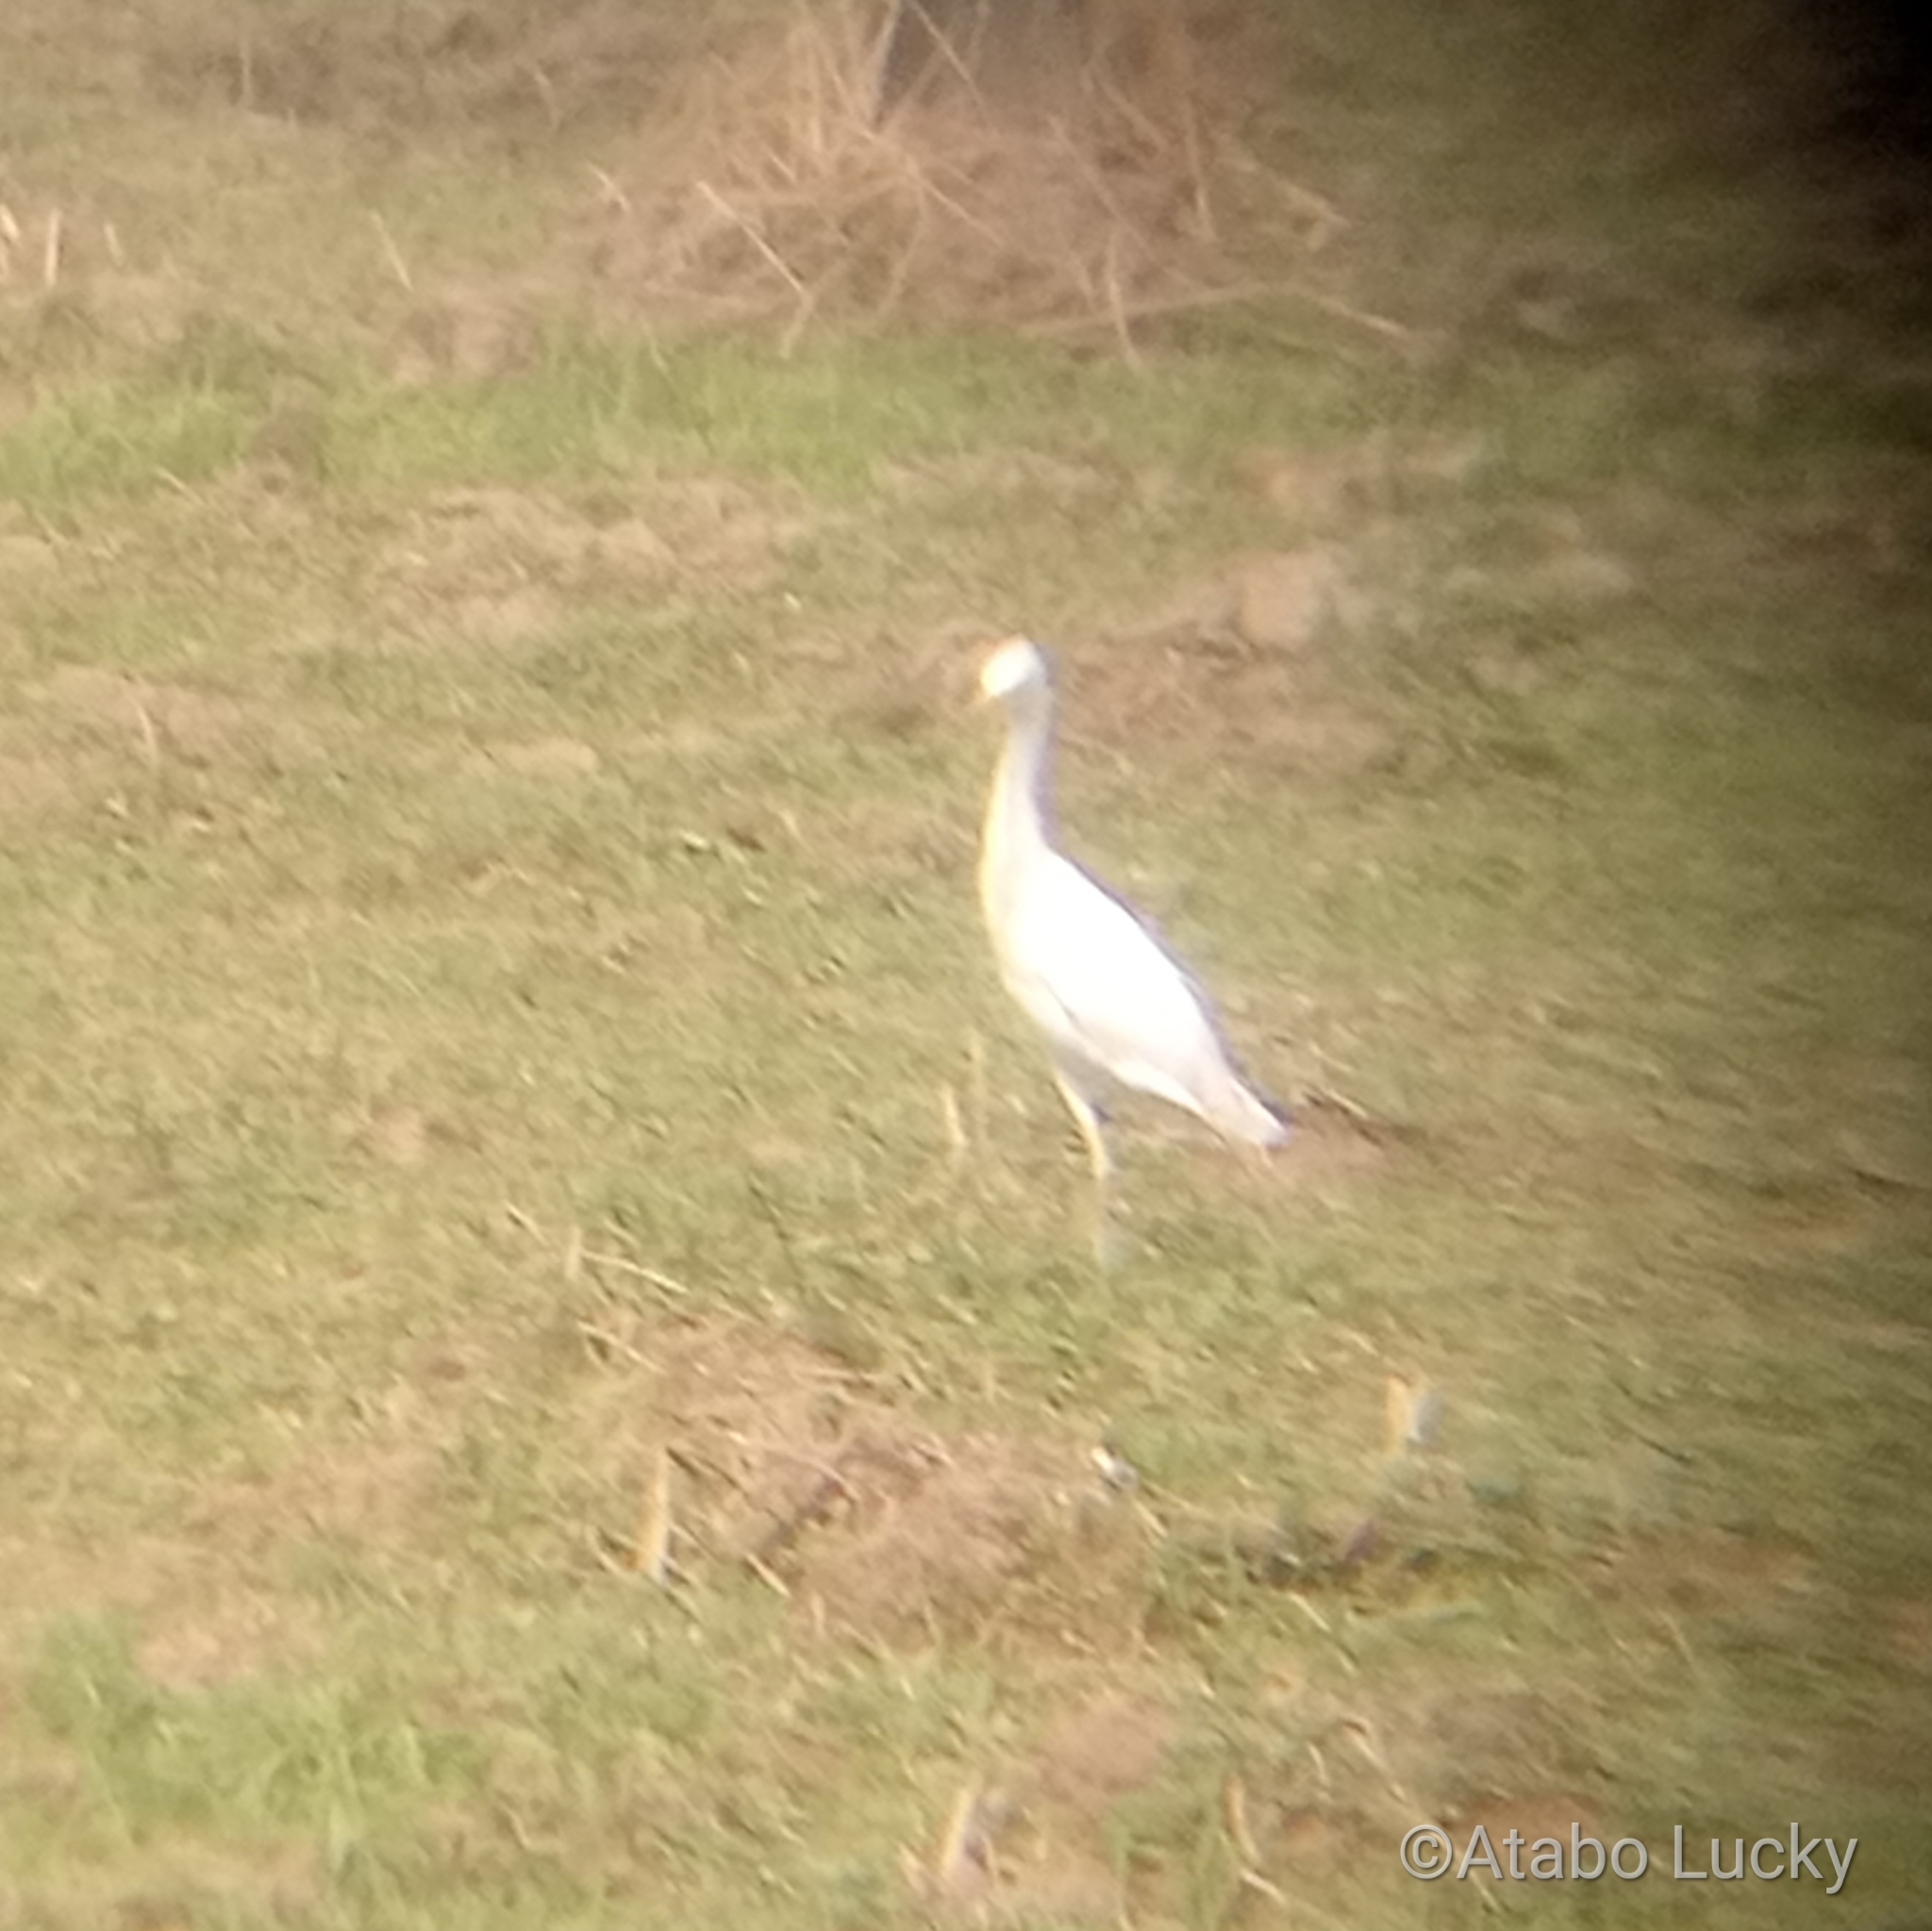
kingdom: Animalia
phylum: Chordata
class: Aves
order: Pelecaniformes
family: Ardeidae
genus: Bubulcus
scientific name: Bubulcus ibis
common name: Cattle egret
